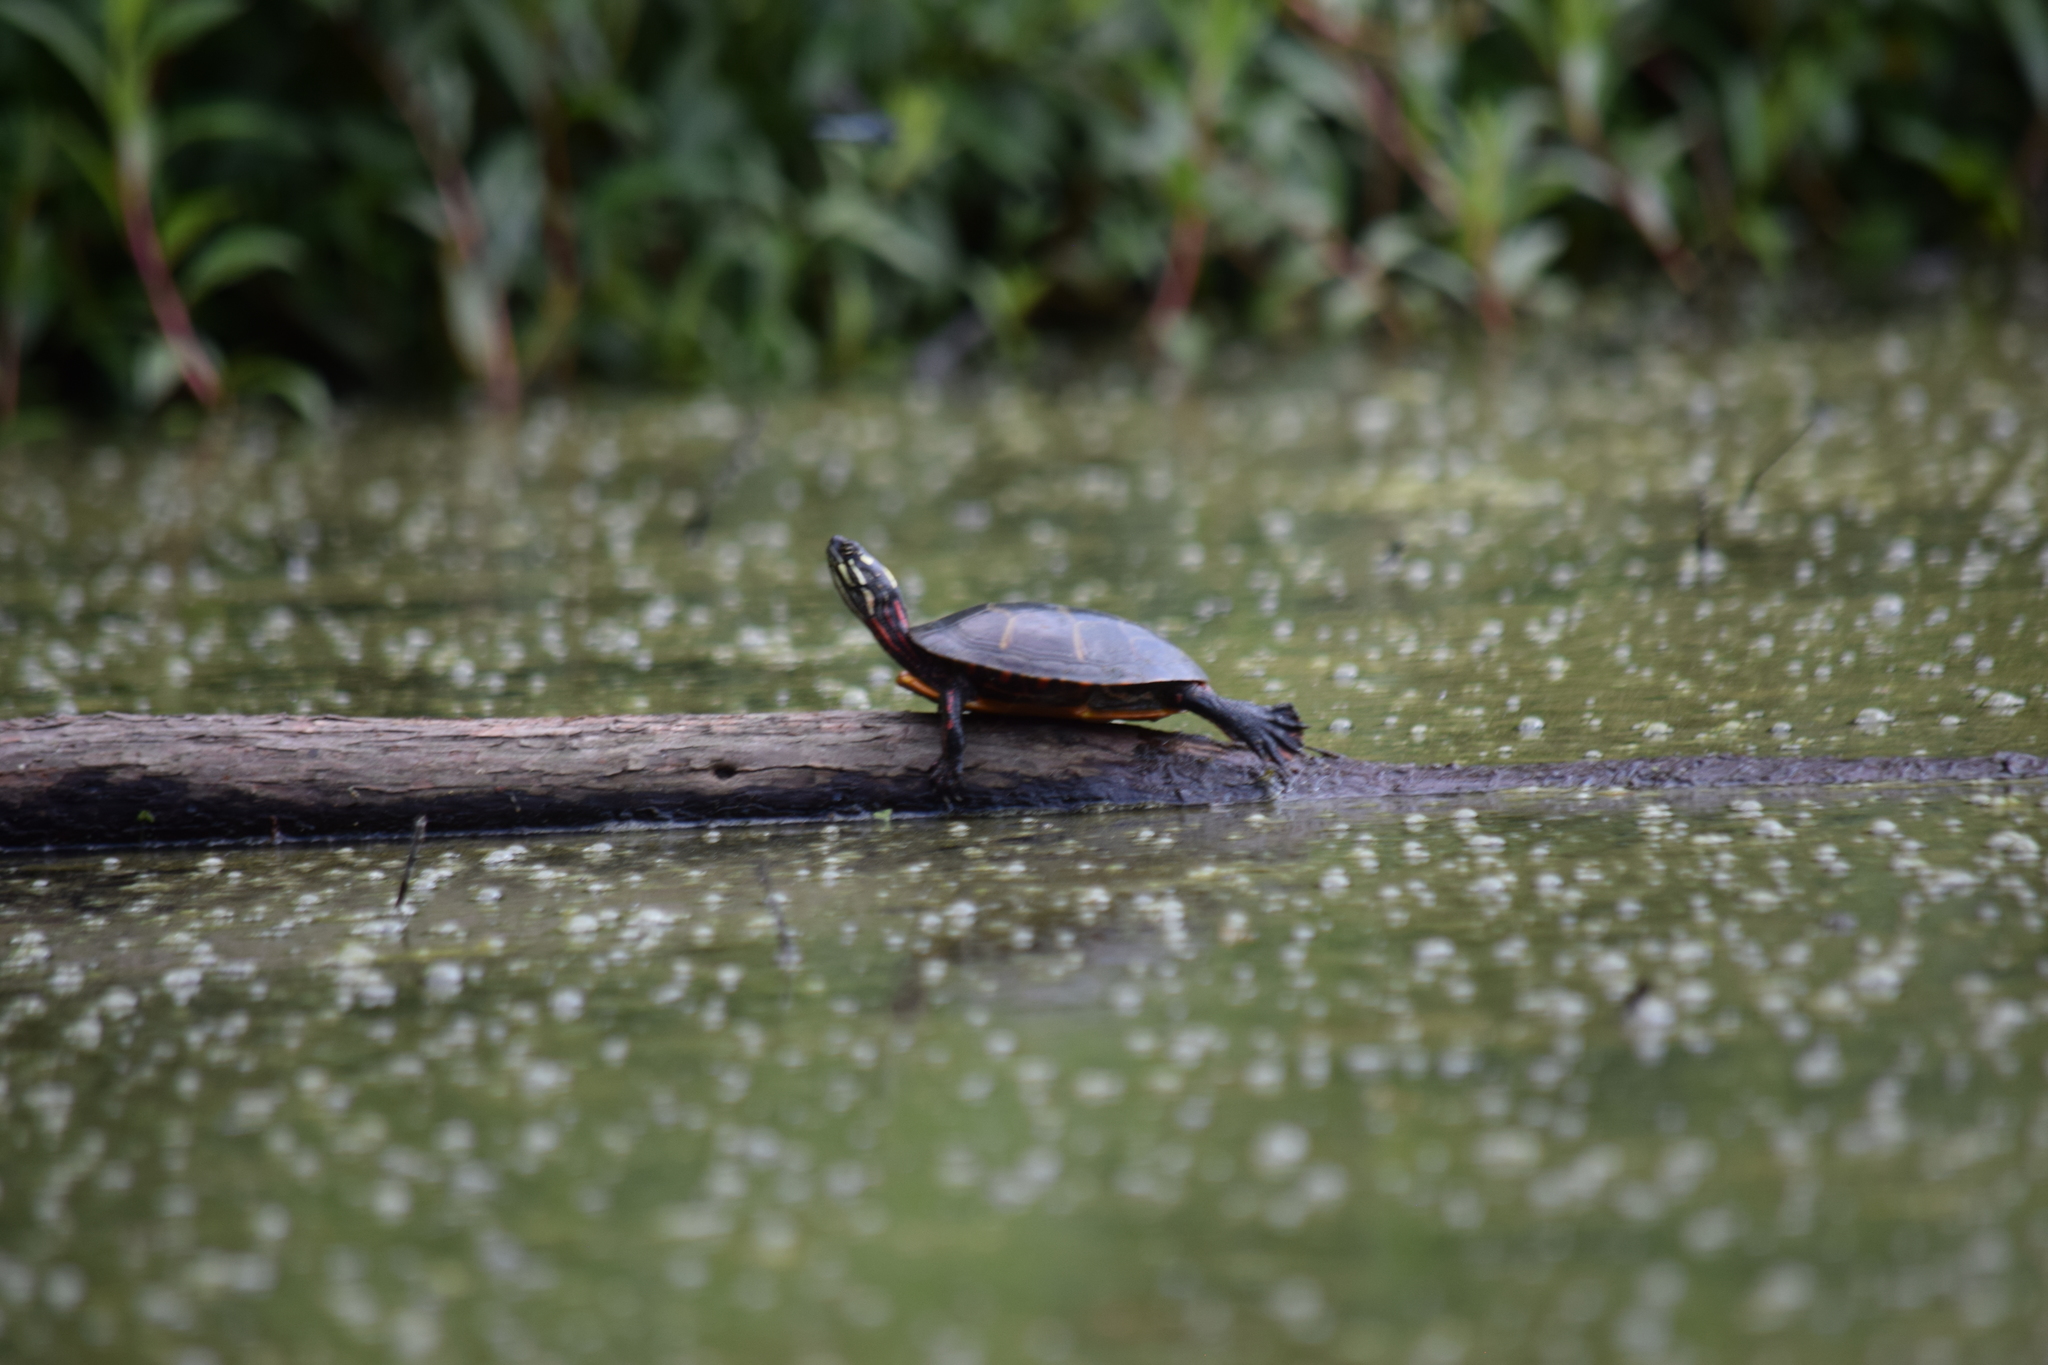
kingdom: Animalia
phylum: Chordata
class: Testudines
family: Emydidae
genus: Chrysemys
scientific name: Chrysemys picta
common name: Painted turtle
